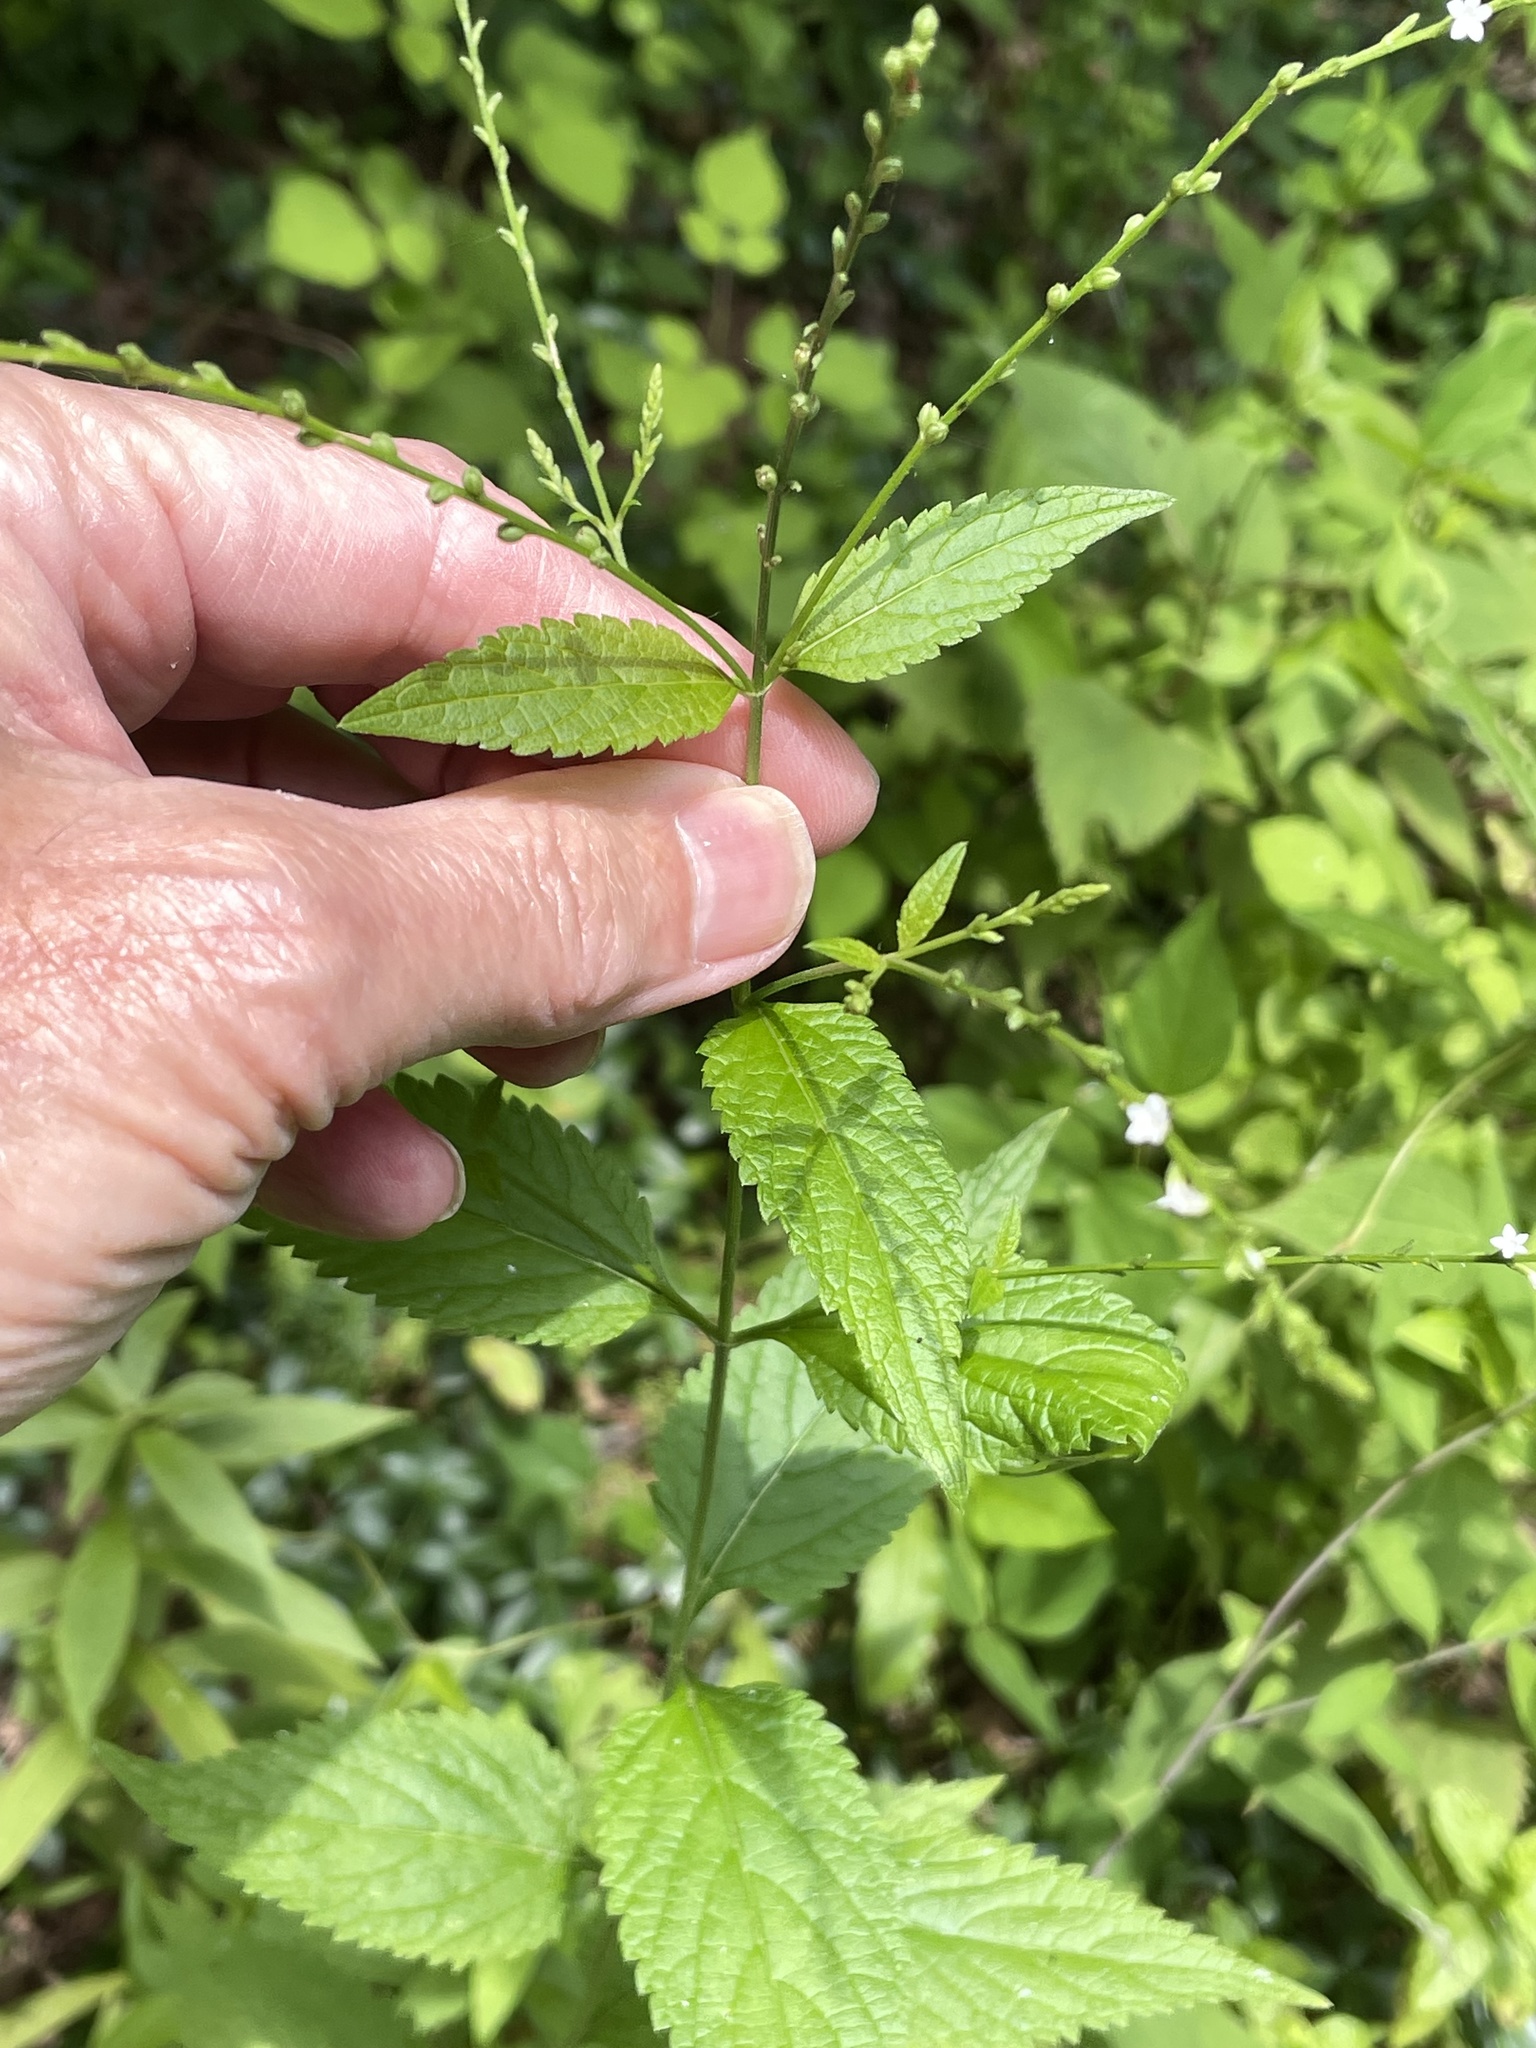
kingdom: Plantae
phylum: Tracheophyta
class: Magnoliopsida
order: Lamiales
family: Verbenaceae
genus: Verbena
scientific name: Verbena urticifolia
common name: Nettle-leaved vervain
